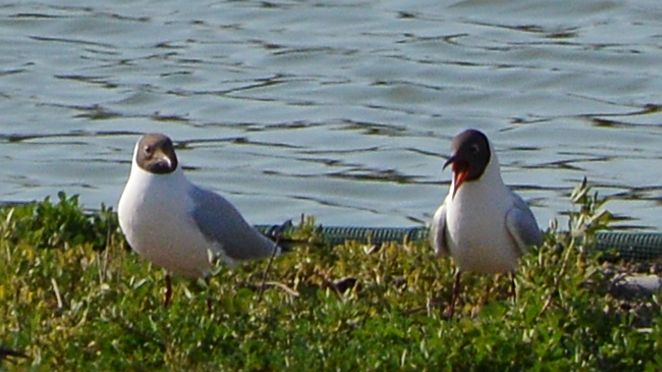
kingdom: Animalia
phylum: Chordata
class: Aves
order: Charadriiformes
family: Laridae
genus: Chroicocephalus
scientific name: Chroicocephalus ridibundus
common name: Black-headed gull
